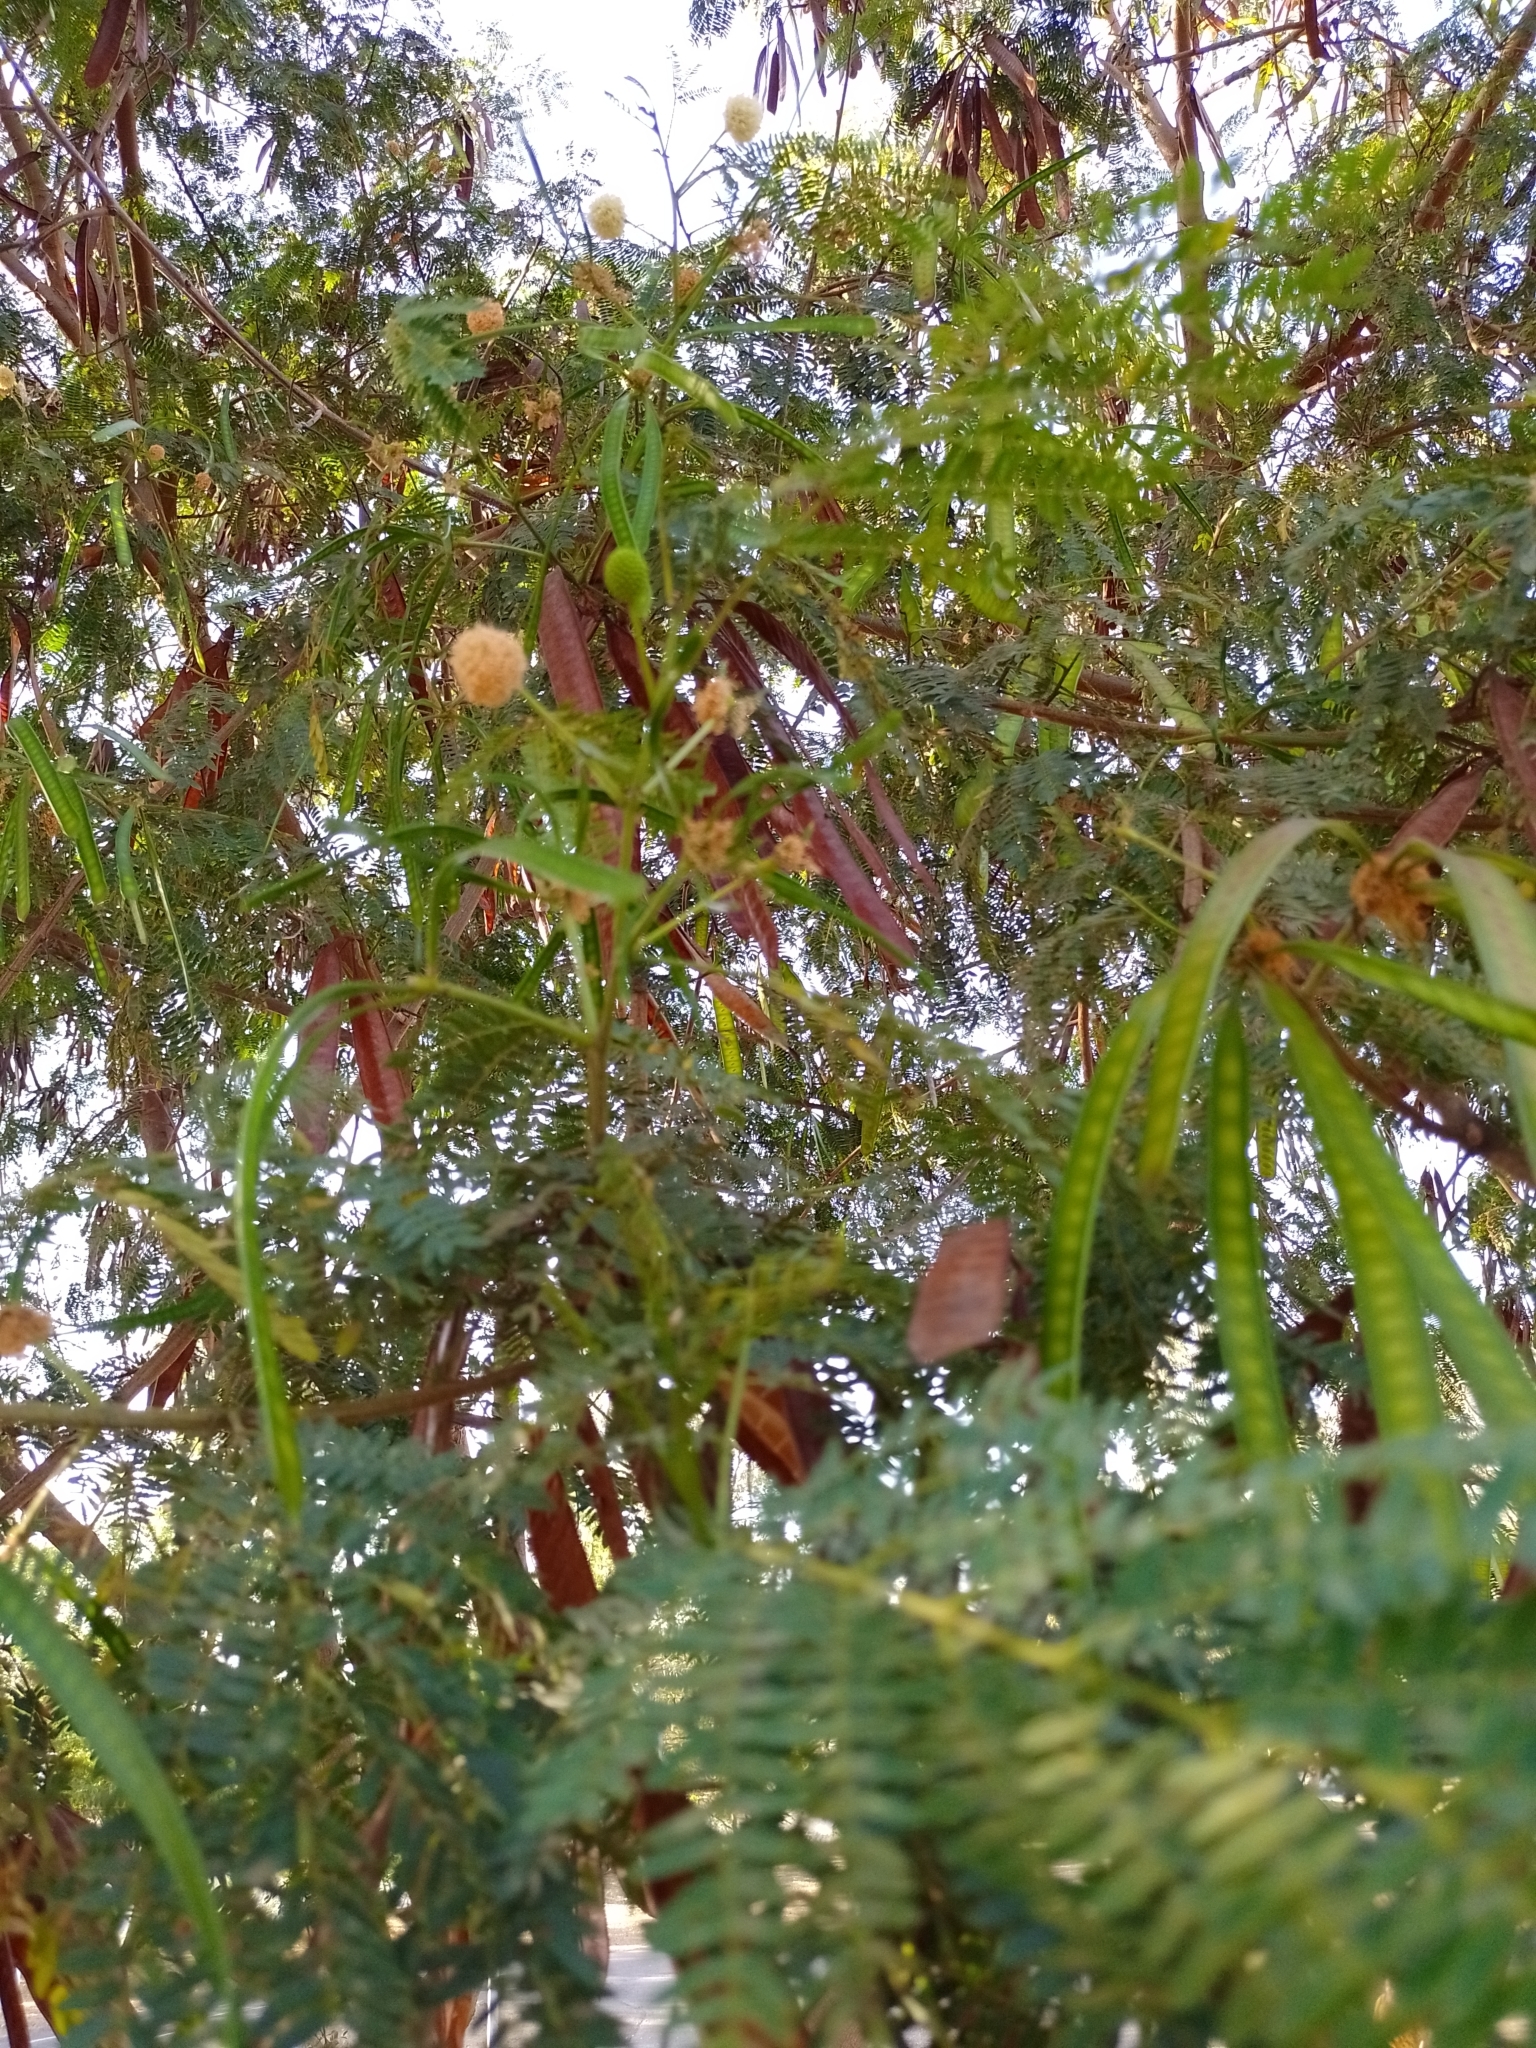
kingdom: Plantae
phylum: Tracheophyta
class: Magnoliopsida
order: Fabales
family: Fabaceae
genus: Leucaena
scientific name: Leucaena leucocephala
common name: White leadtree
